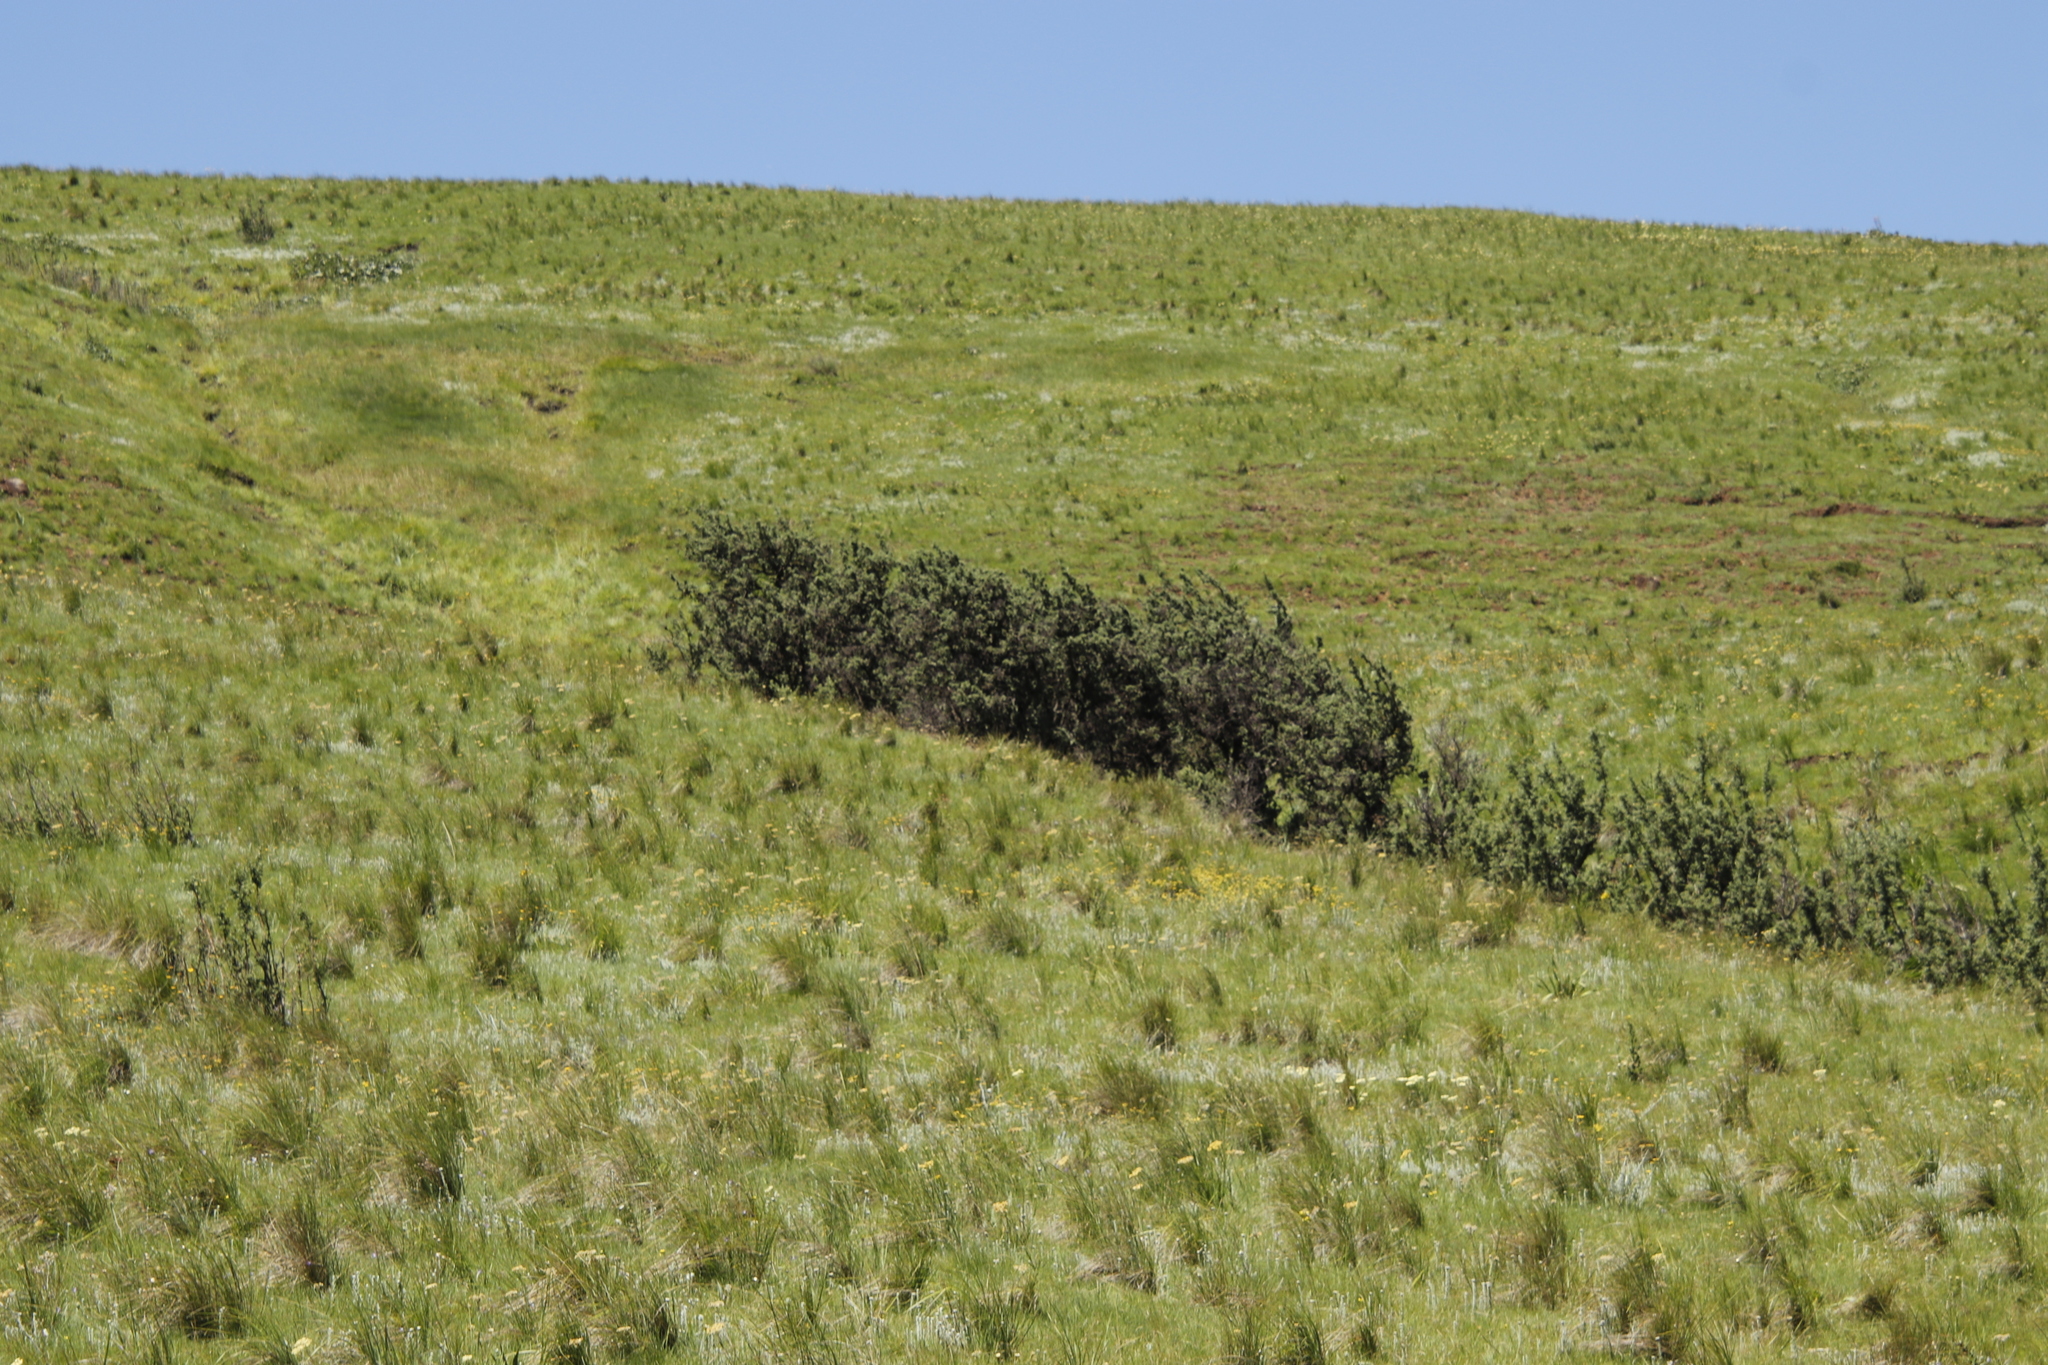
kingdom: Plantae
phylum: Tracheophyta
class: Magnoliopsida
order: Rosales
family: Rosaceae
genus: Leucosidea
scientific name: Leucosidea sericea
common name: Oldwood
